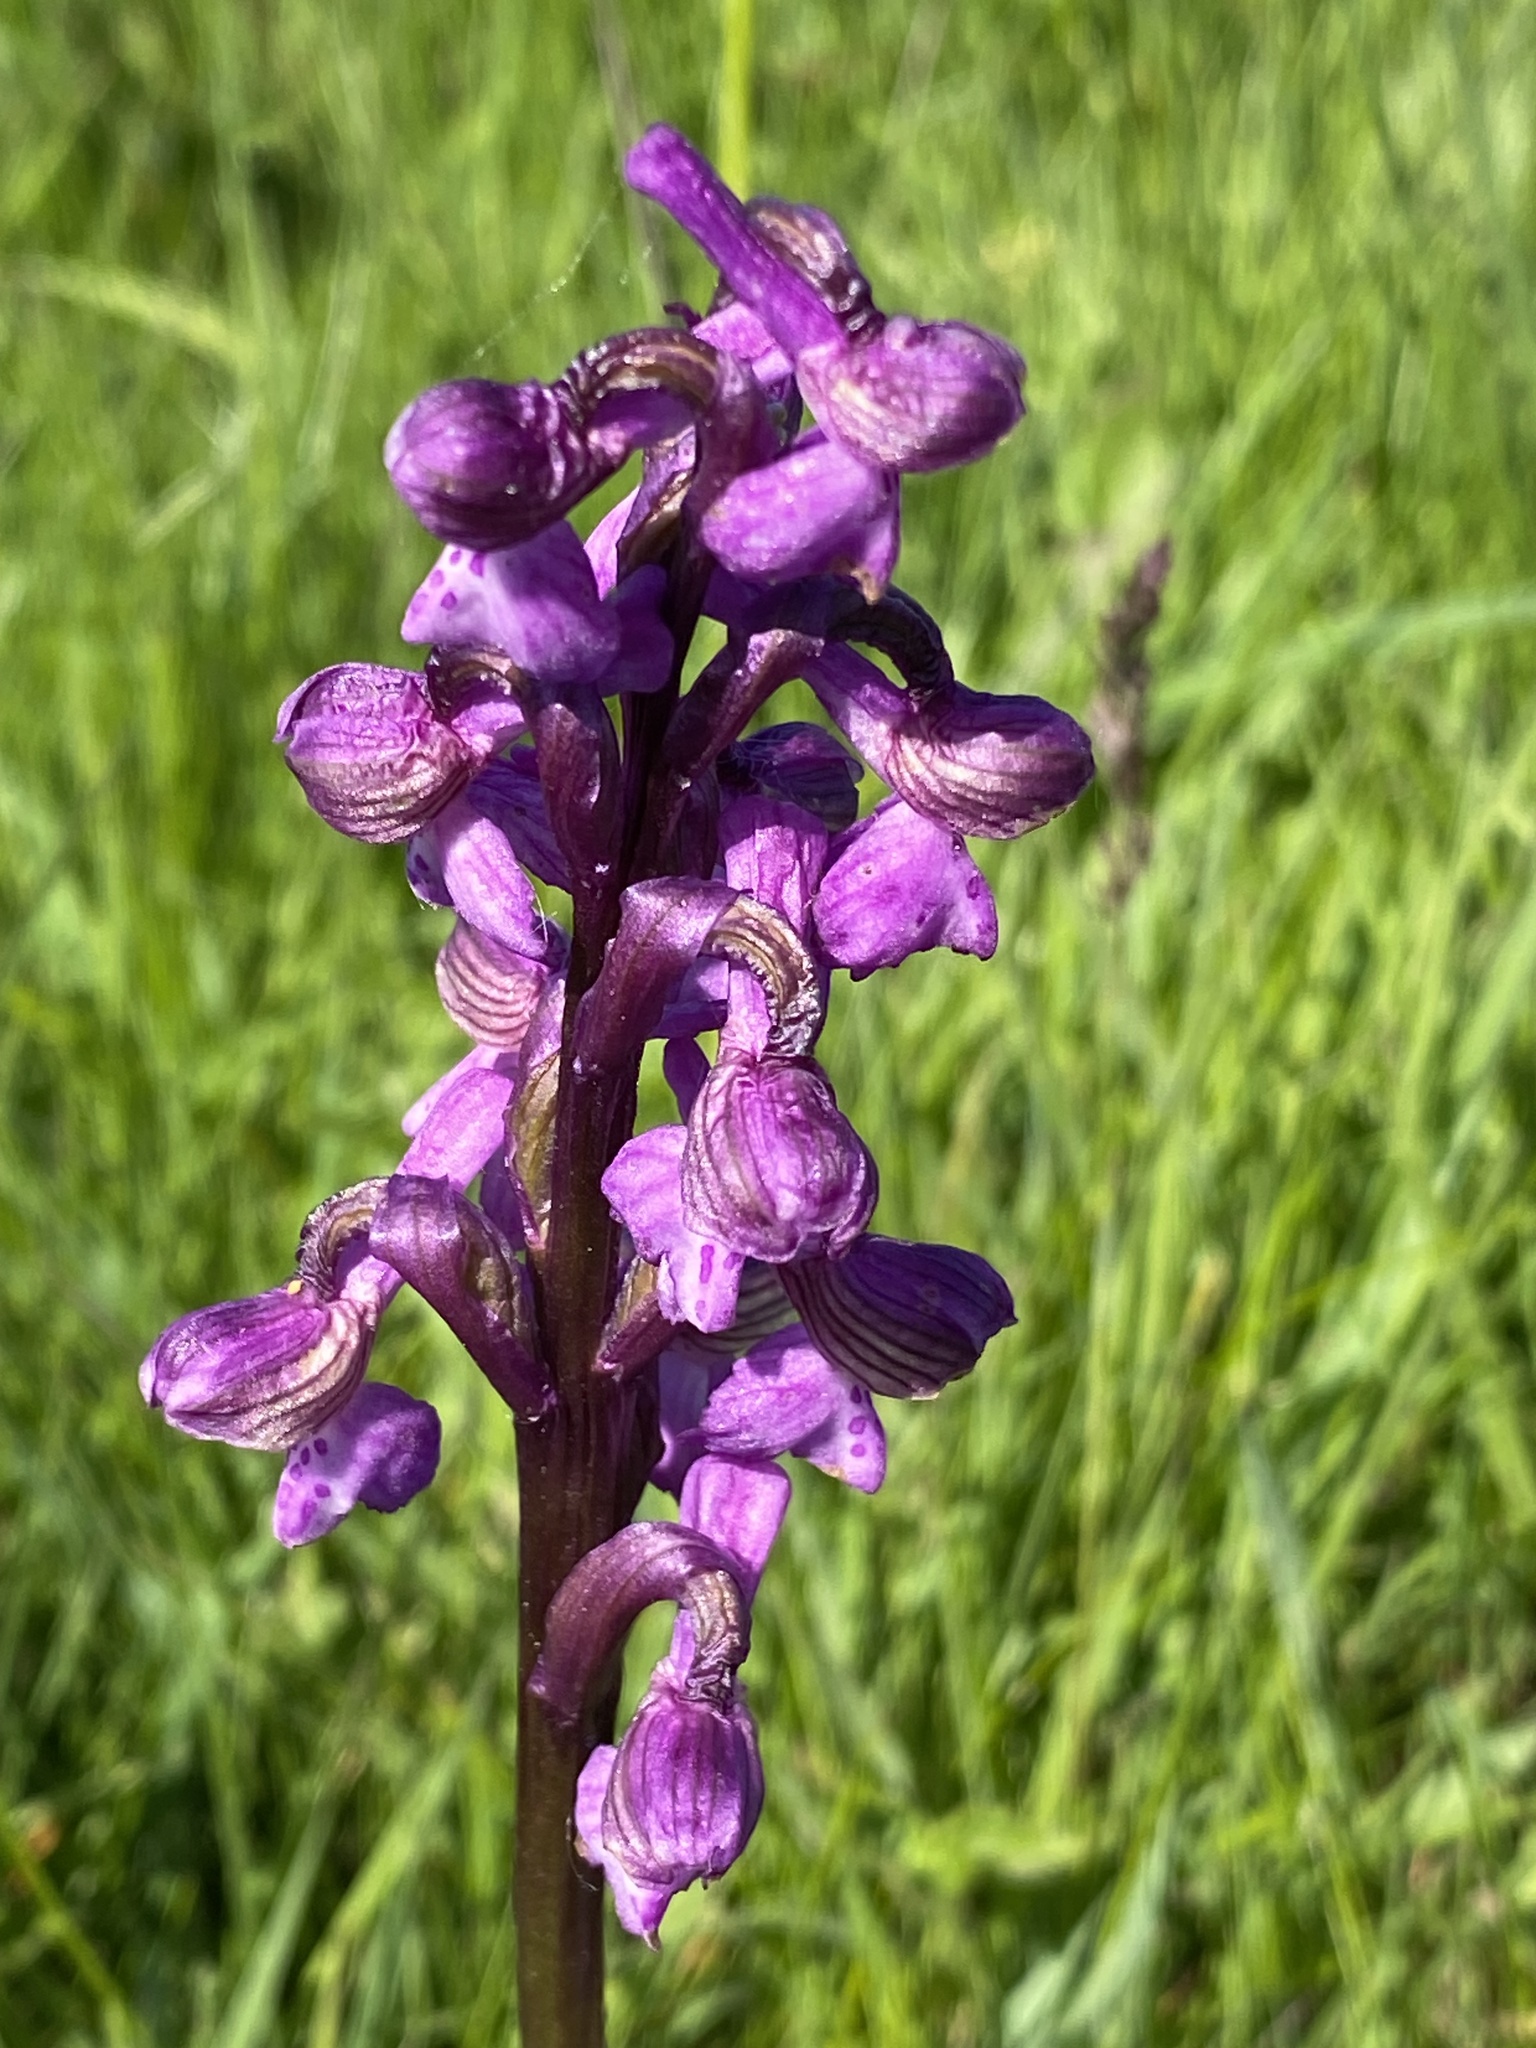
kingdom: Plantae
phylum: Tracheophyta
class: Liliopsida
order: Asparagales
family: Orchidaceae
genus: Anacamptis
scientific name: Anacamptis morio
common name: Green-winged orchid
